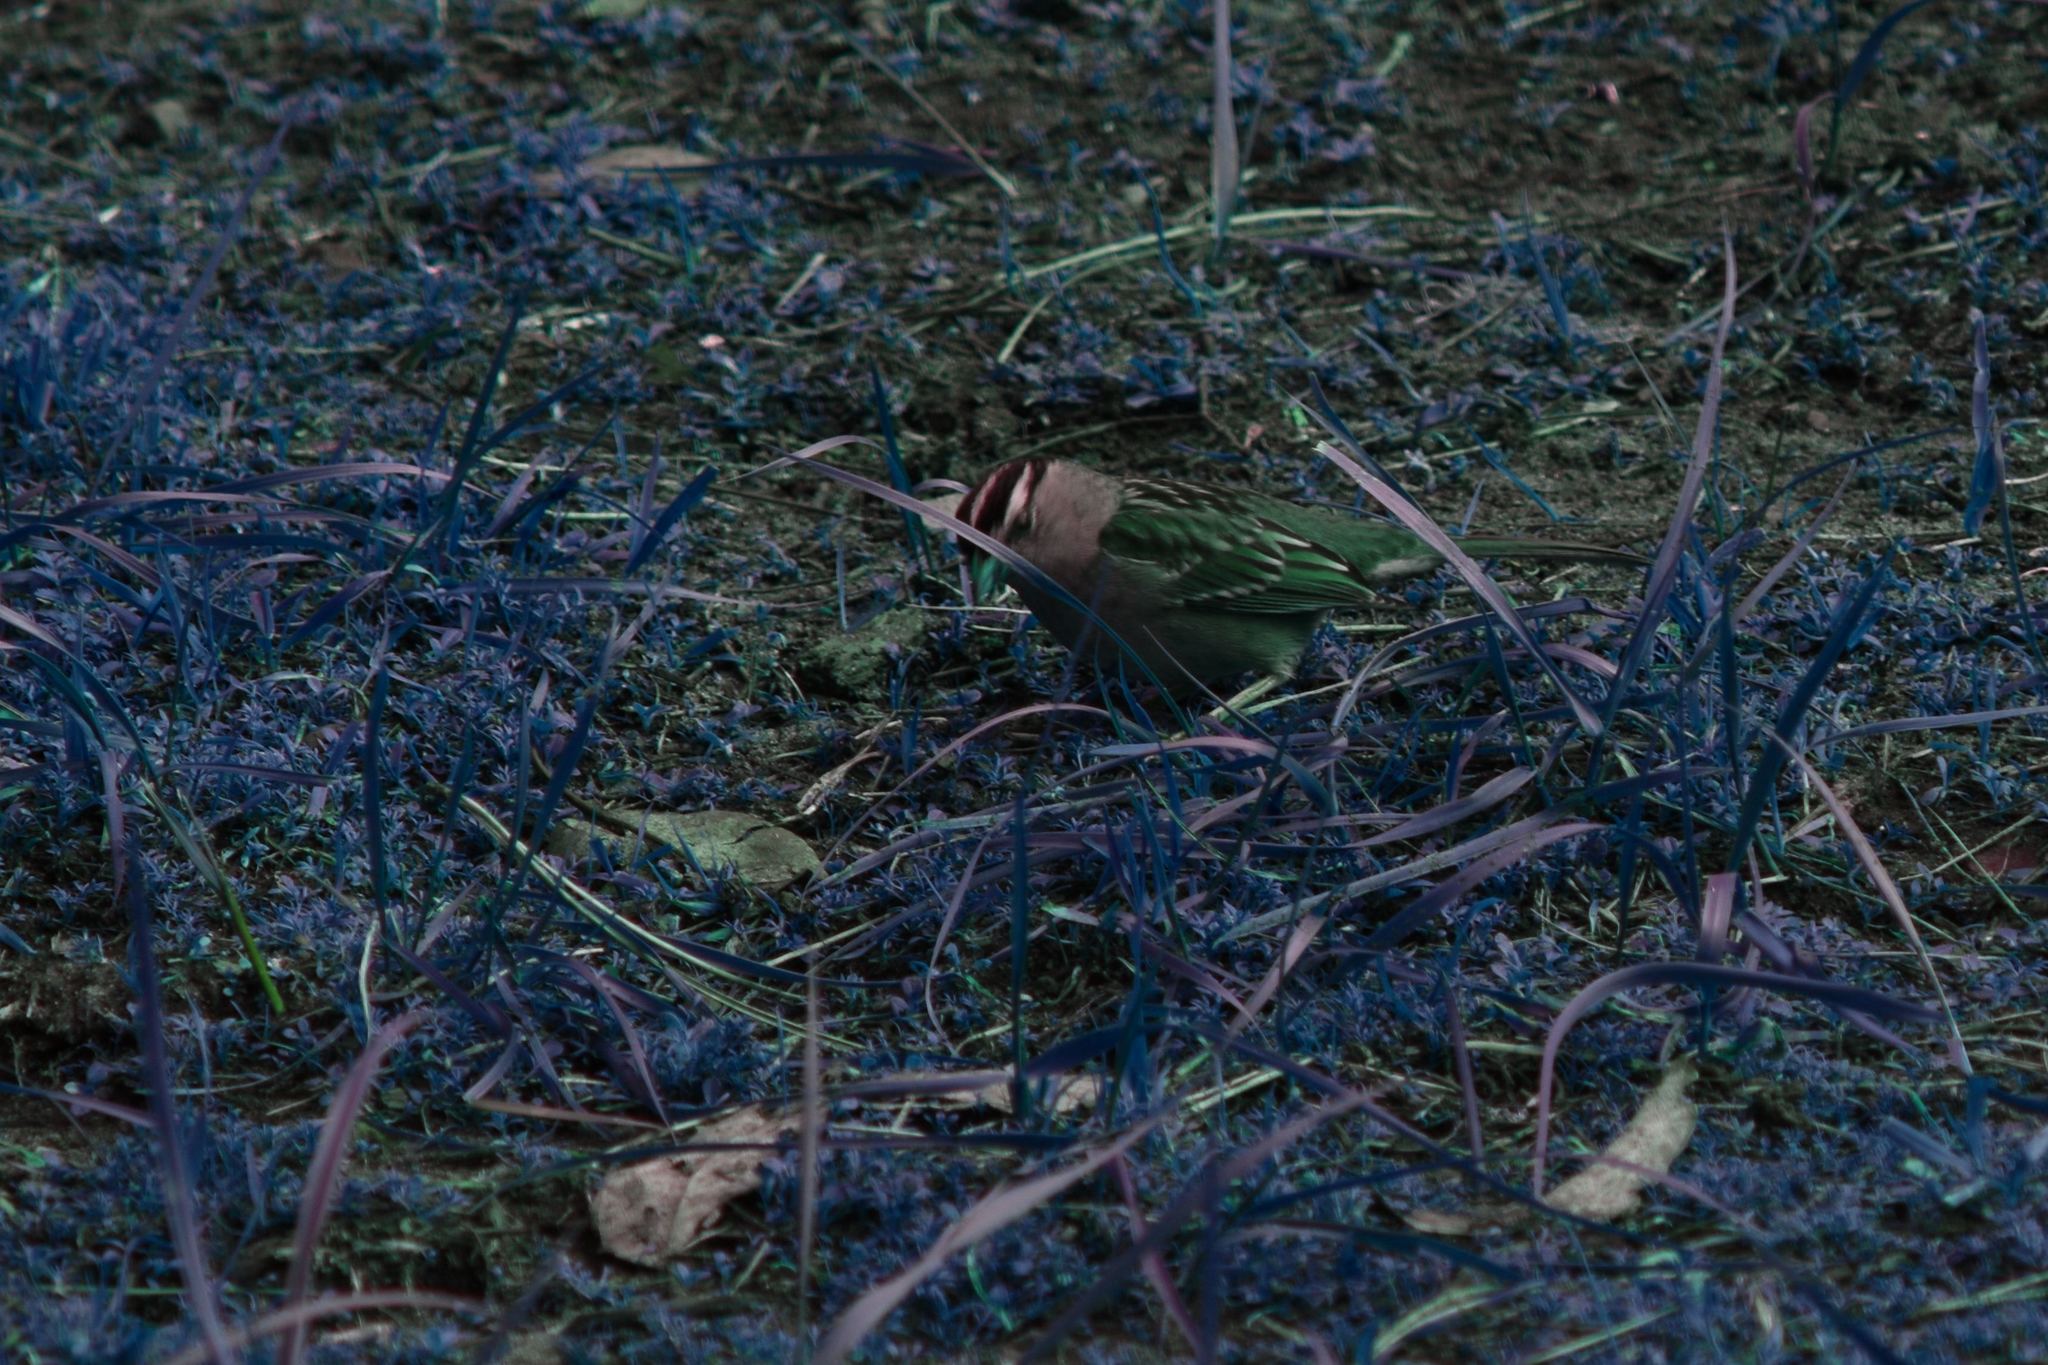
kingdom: Animalia
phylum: Chordata
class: Aves
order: Passeriformes
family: Passerellidae
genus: Zonotrichia
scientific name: Zonotrichia leucophrys
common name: White-crowned sparrow
